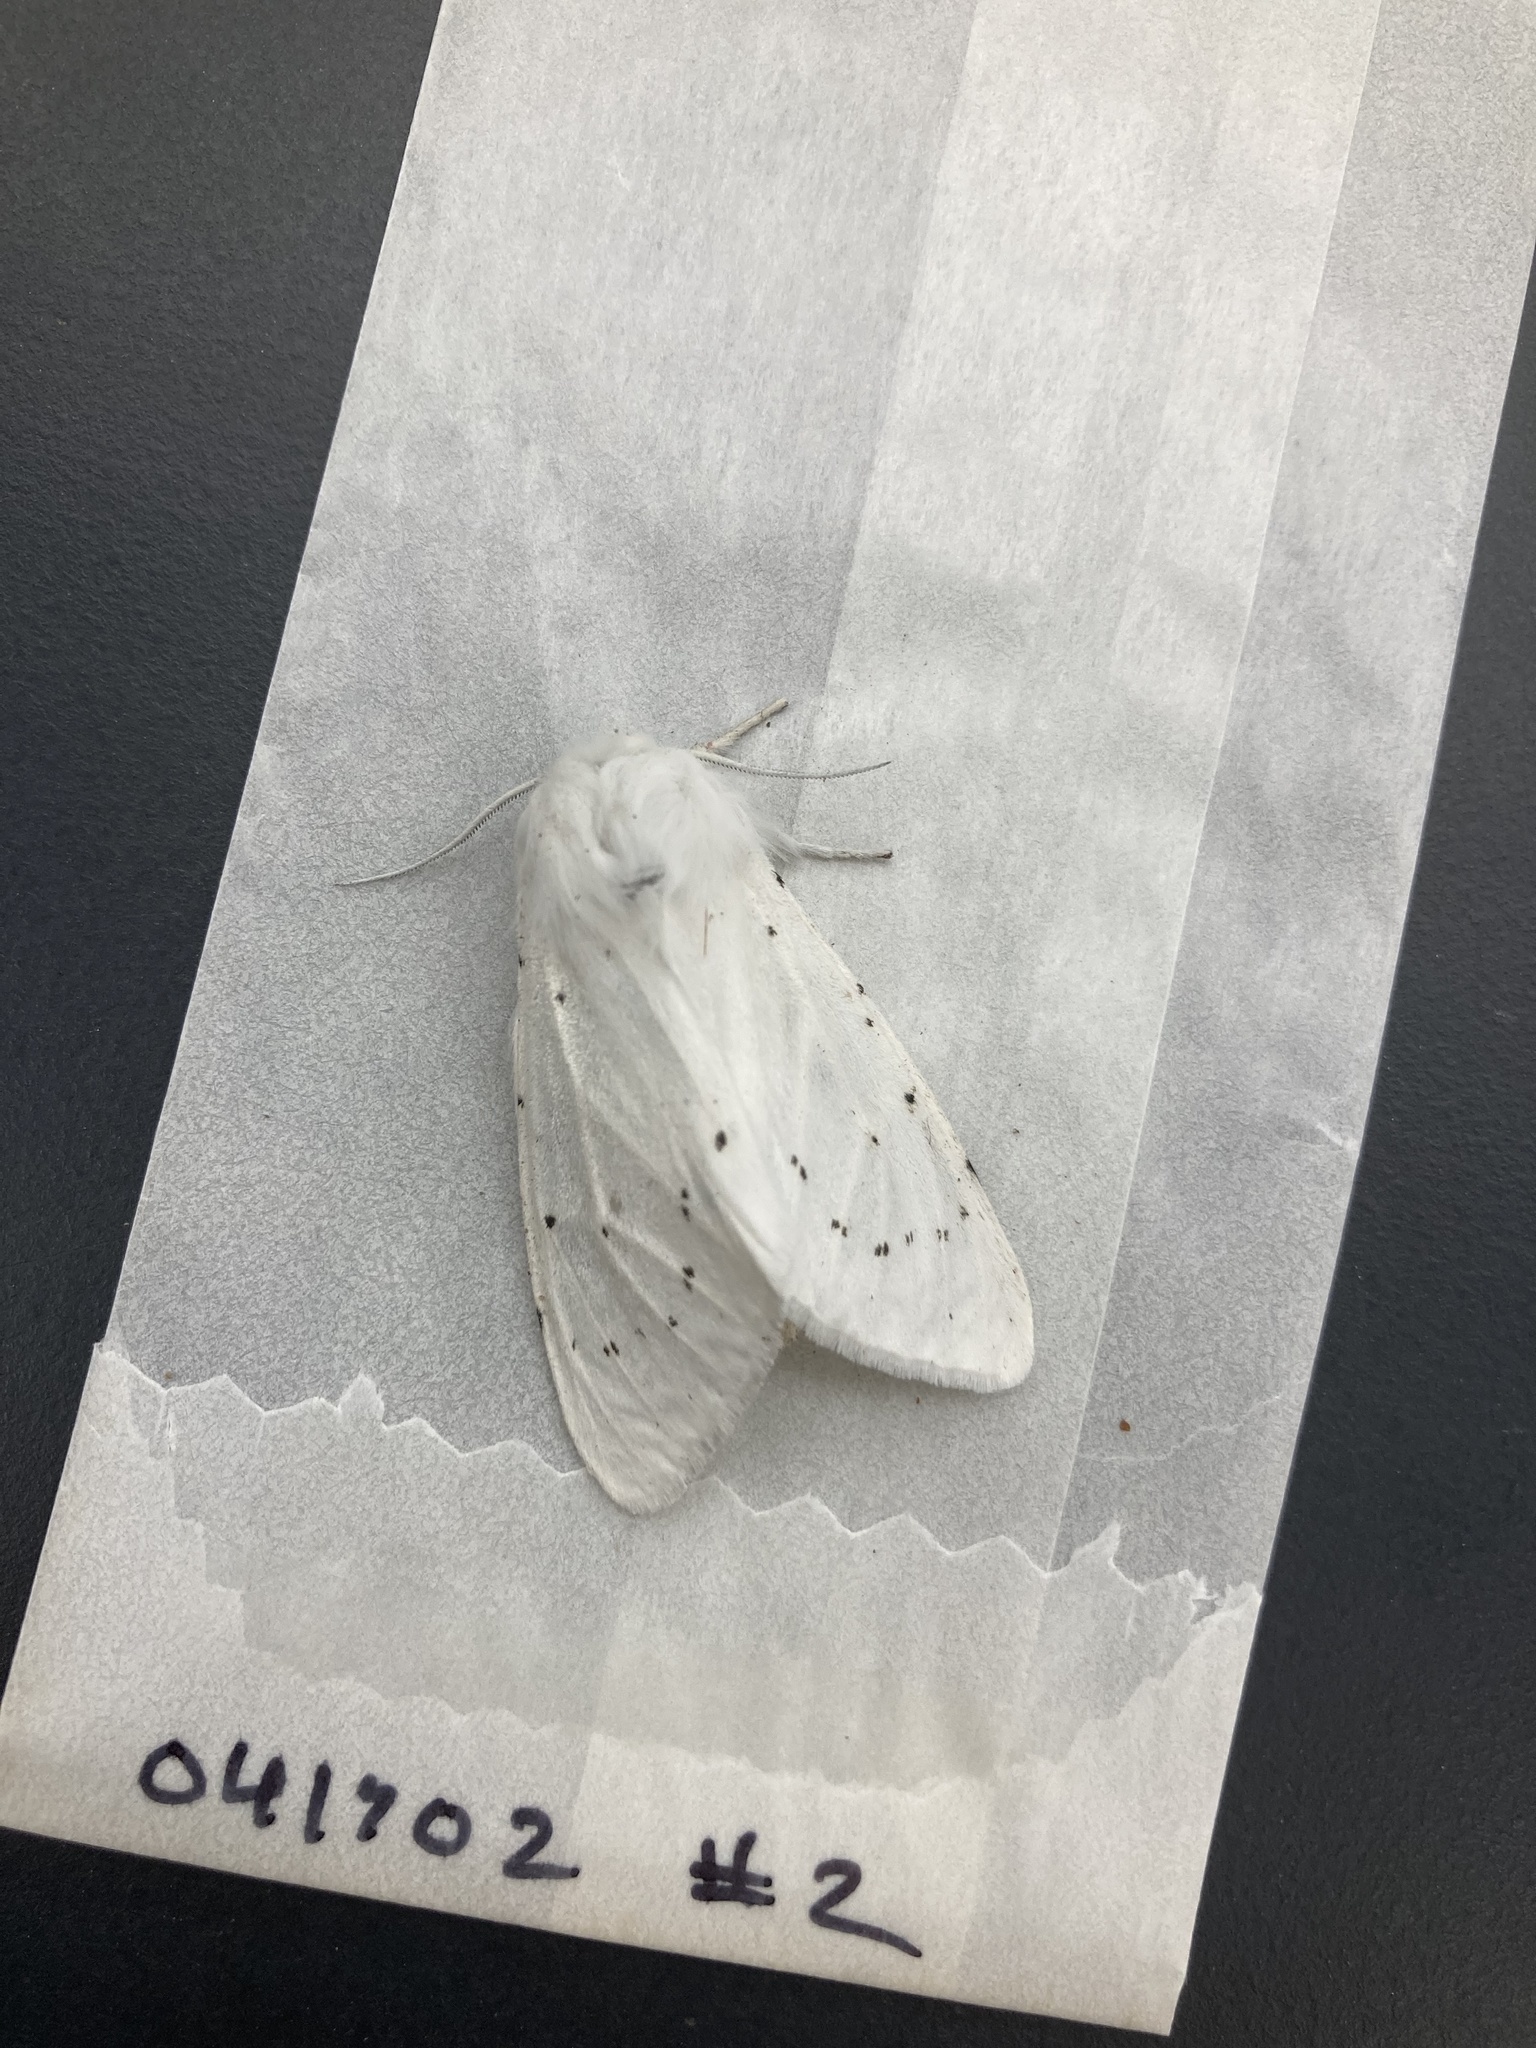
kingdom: Animalia
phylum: Arthropoda
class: Insecta
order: Lepidoptera
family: Erebidae
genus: Spilosoma
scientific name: Spilosoma vestalis
